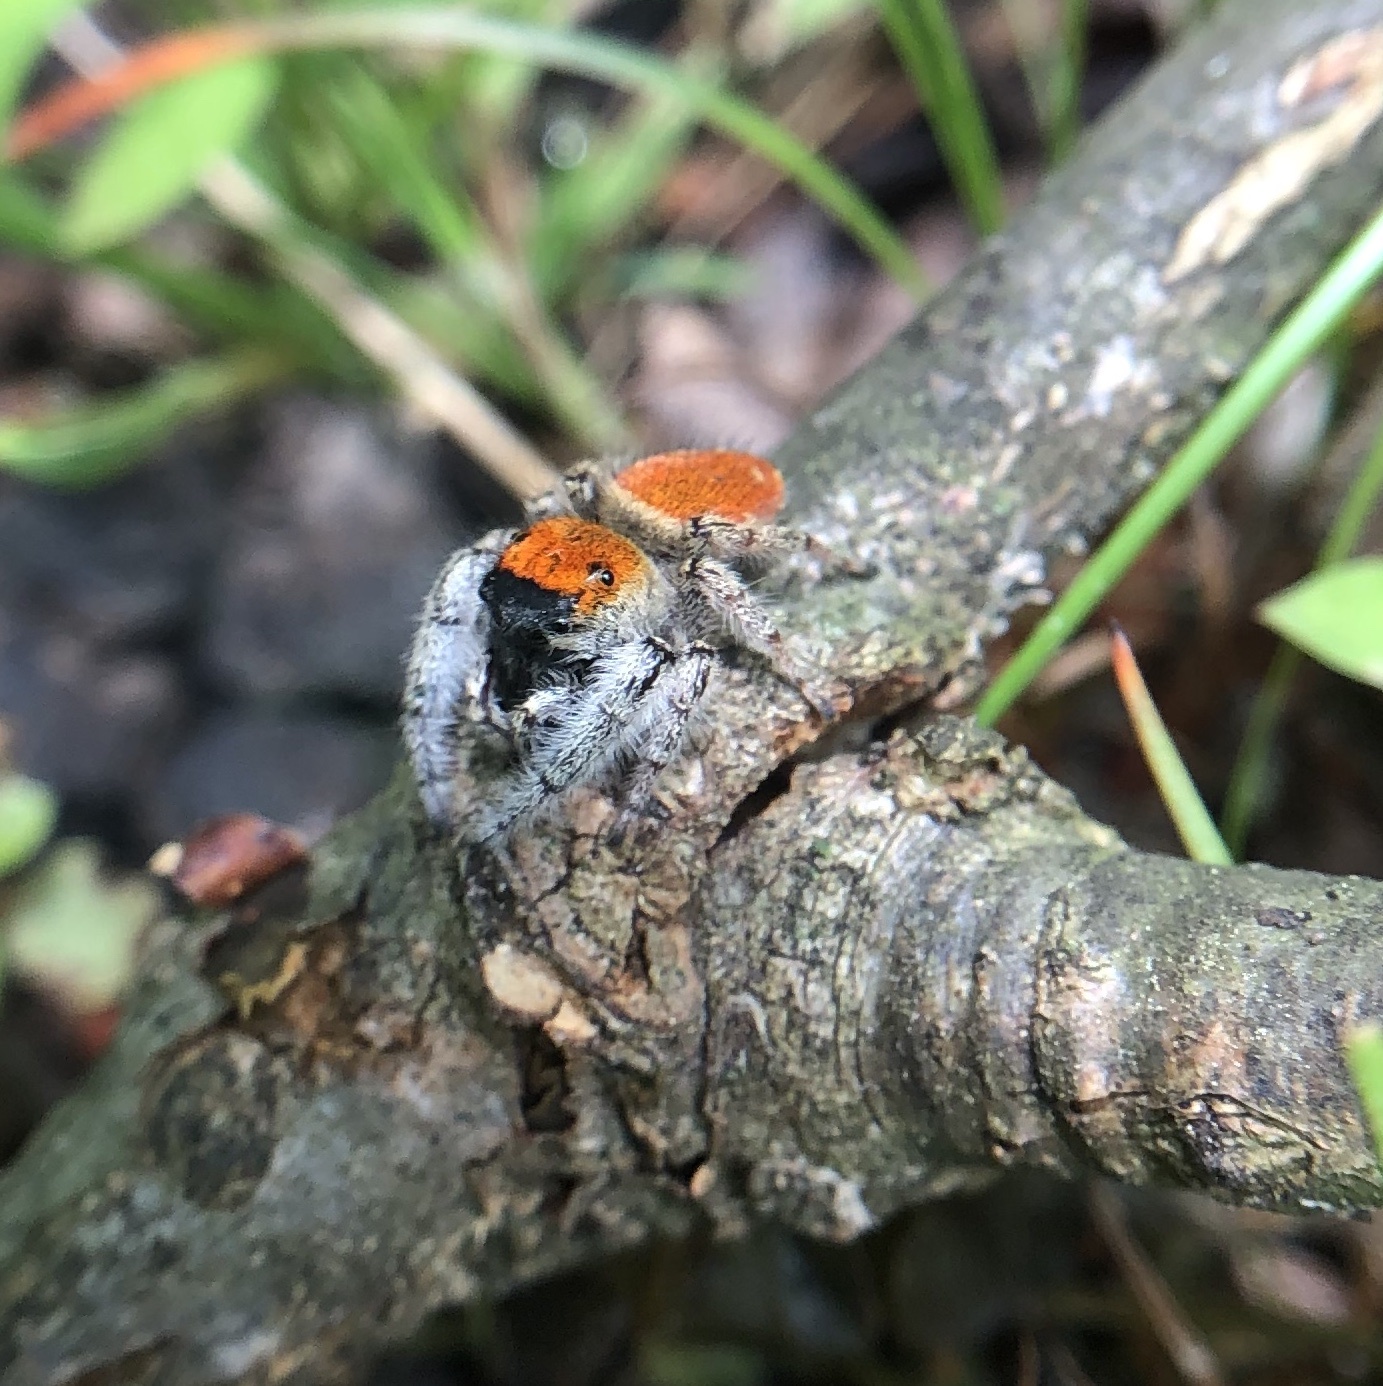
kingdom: Animalia
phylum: Arthropoda
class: Arachnida
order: Araneae
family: Salticidae
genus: Phidippus
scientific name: Phidippus whitmani
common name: Whitman's jumping spider
